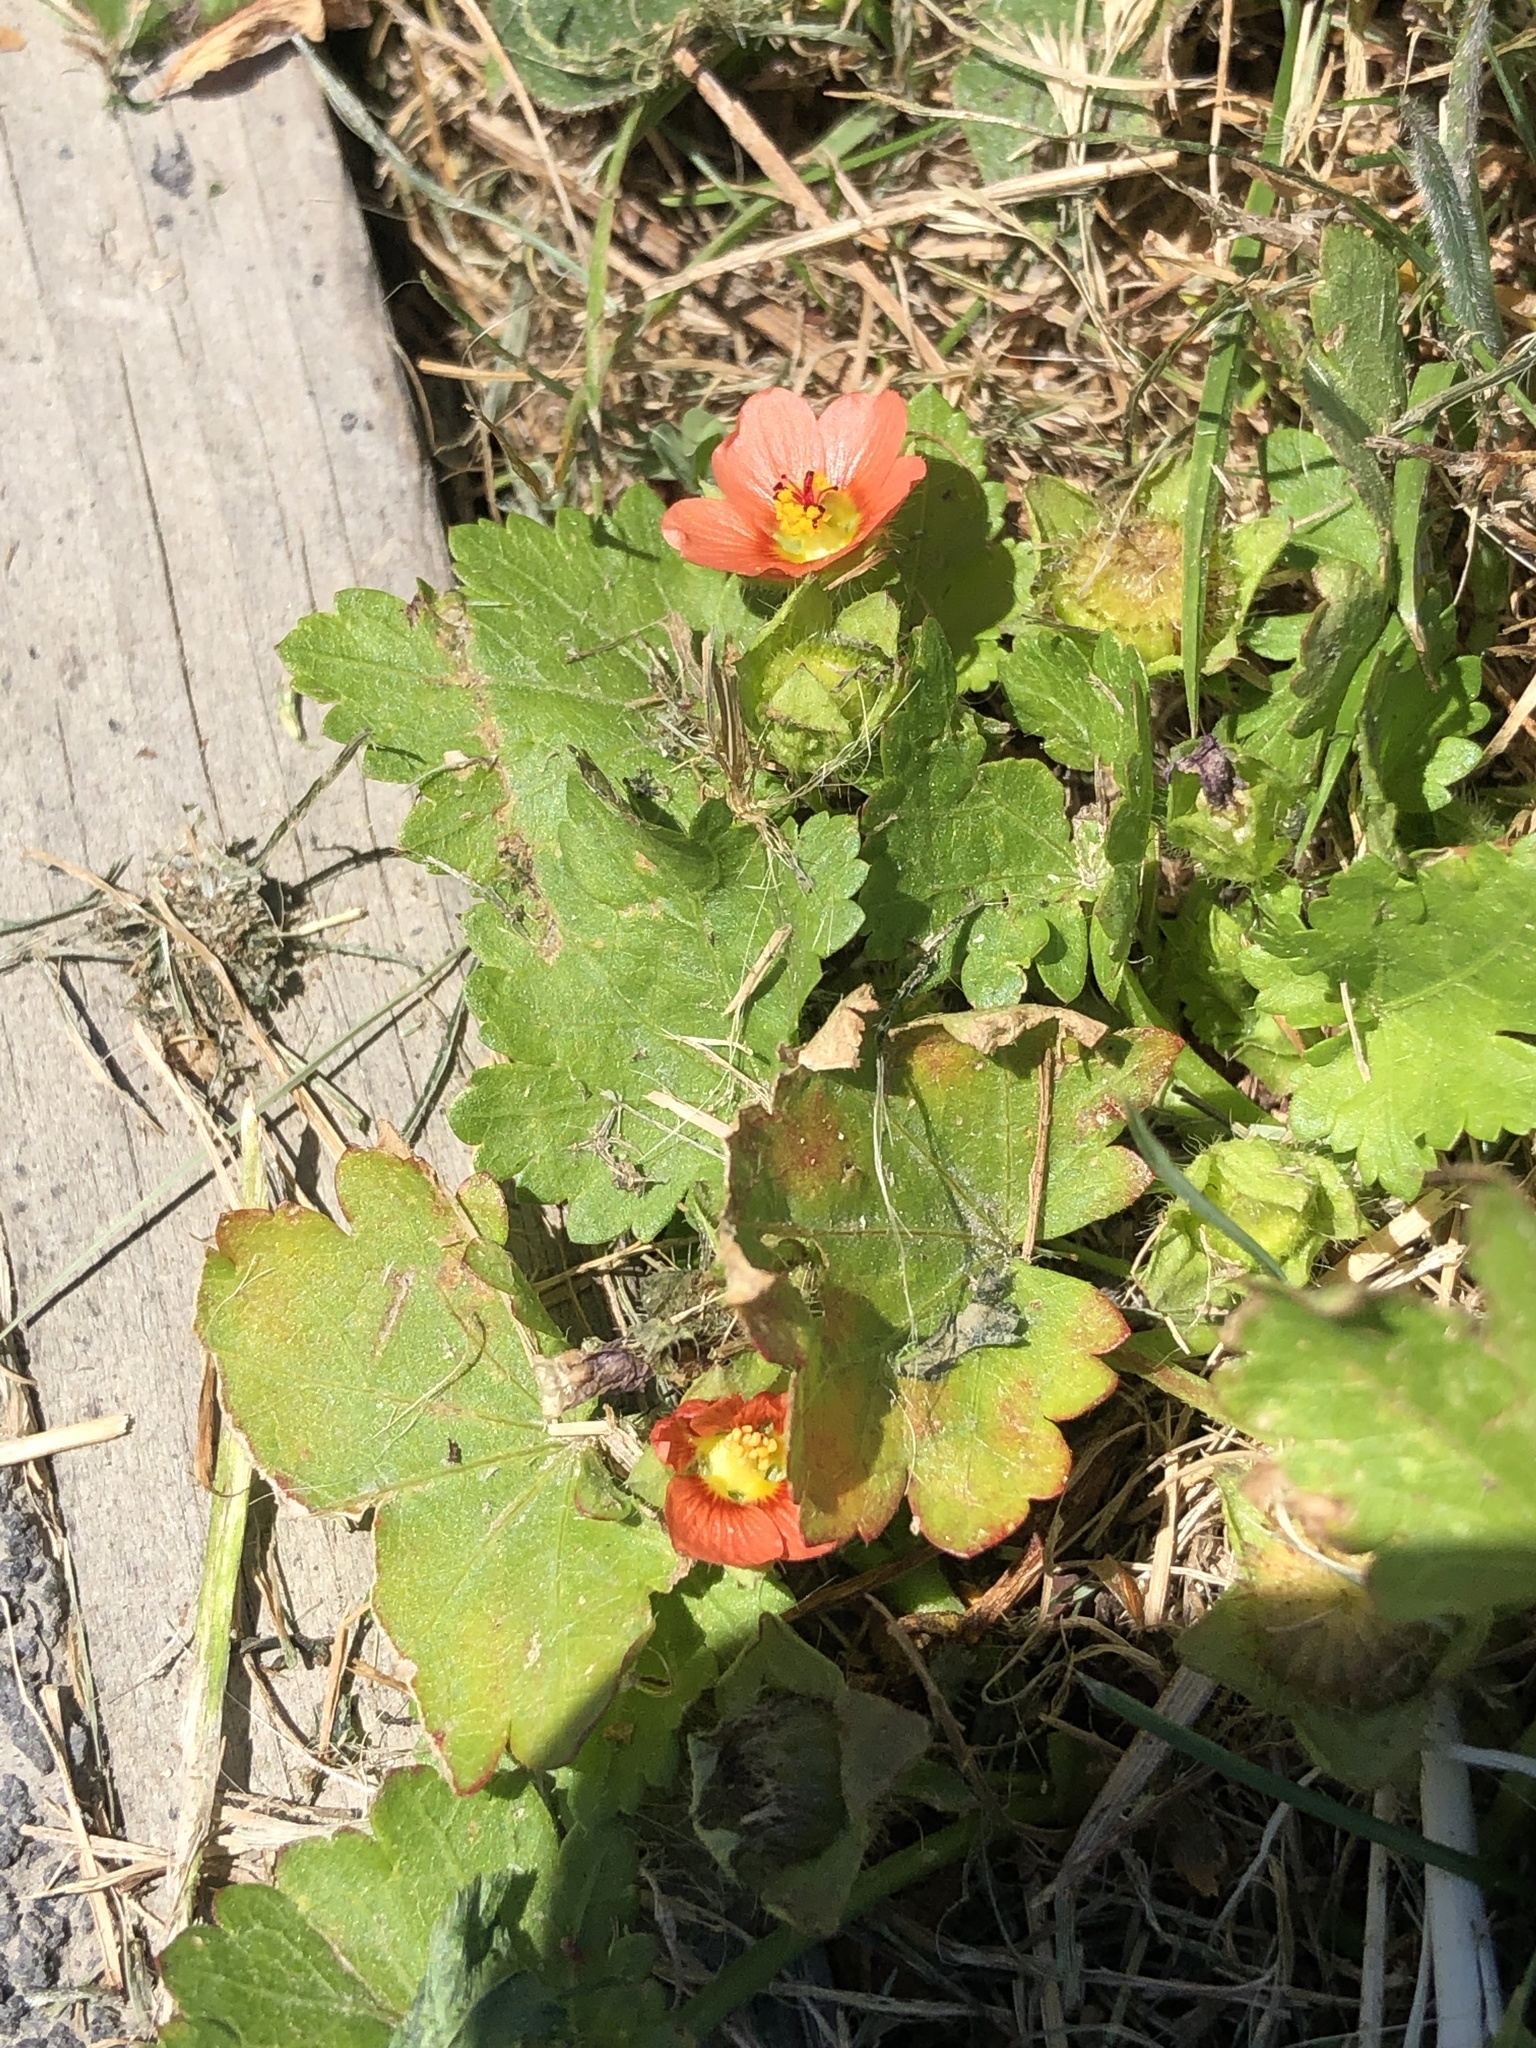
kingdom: Plantae
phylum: Tracheophyta
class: Magnoliopsida
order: Malvales
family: Malvaceae
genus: Modiola
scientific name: Modiola caroliniana
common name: Carolina bristlemallow
